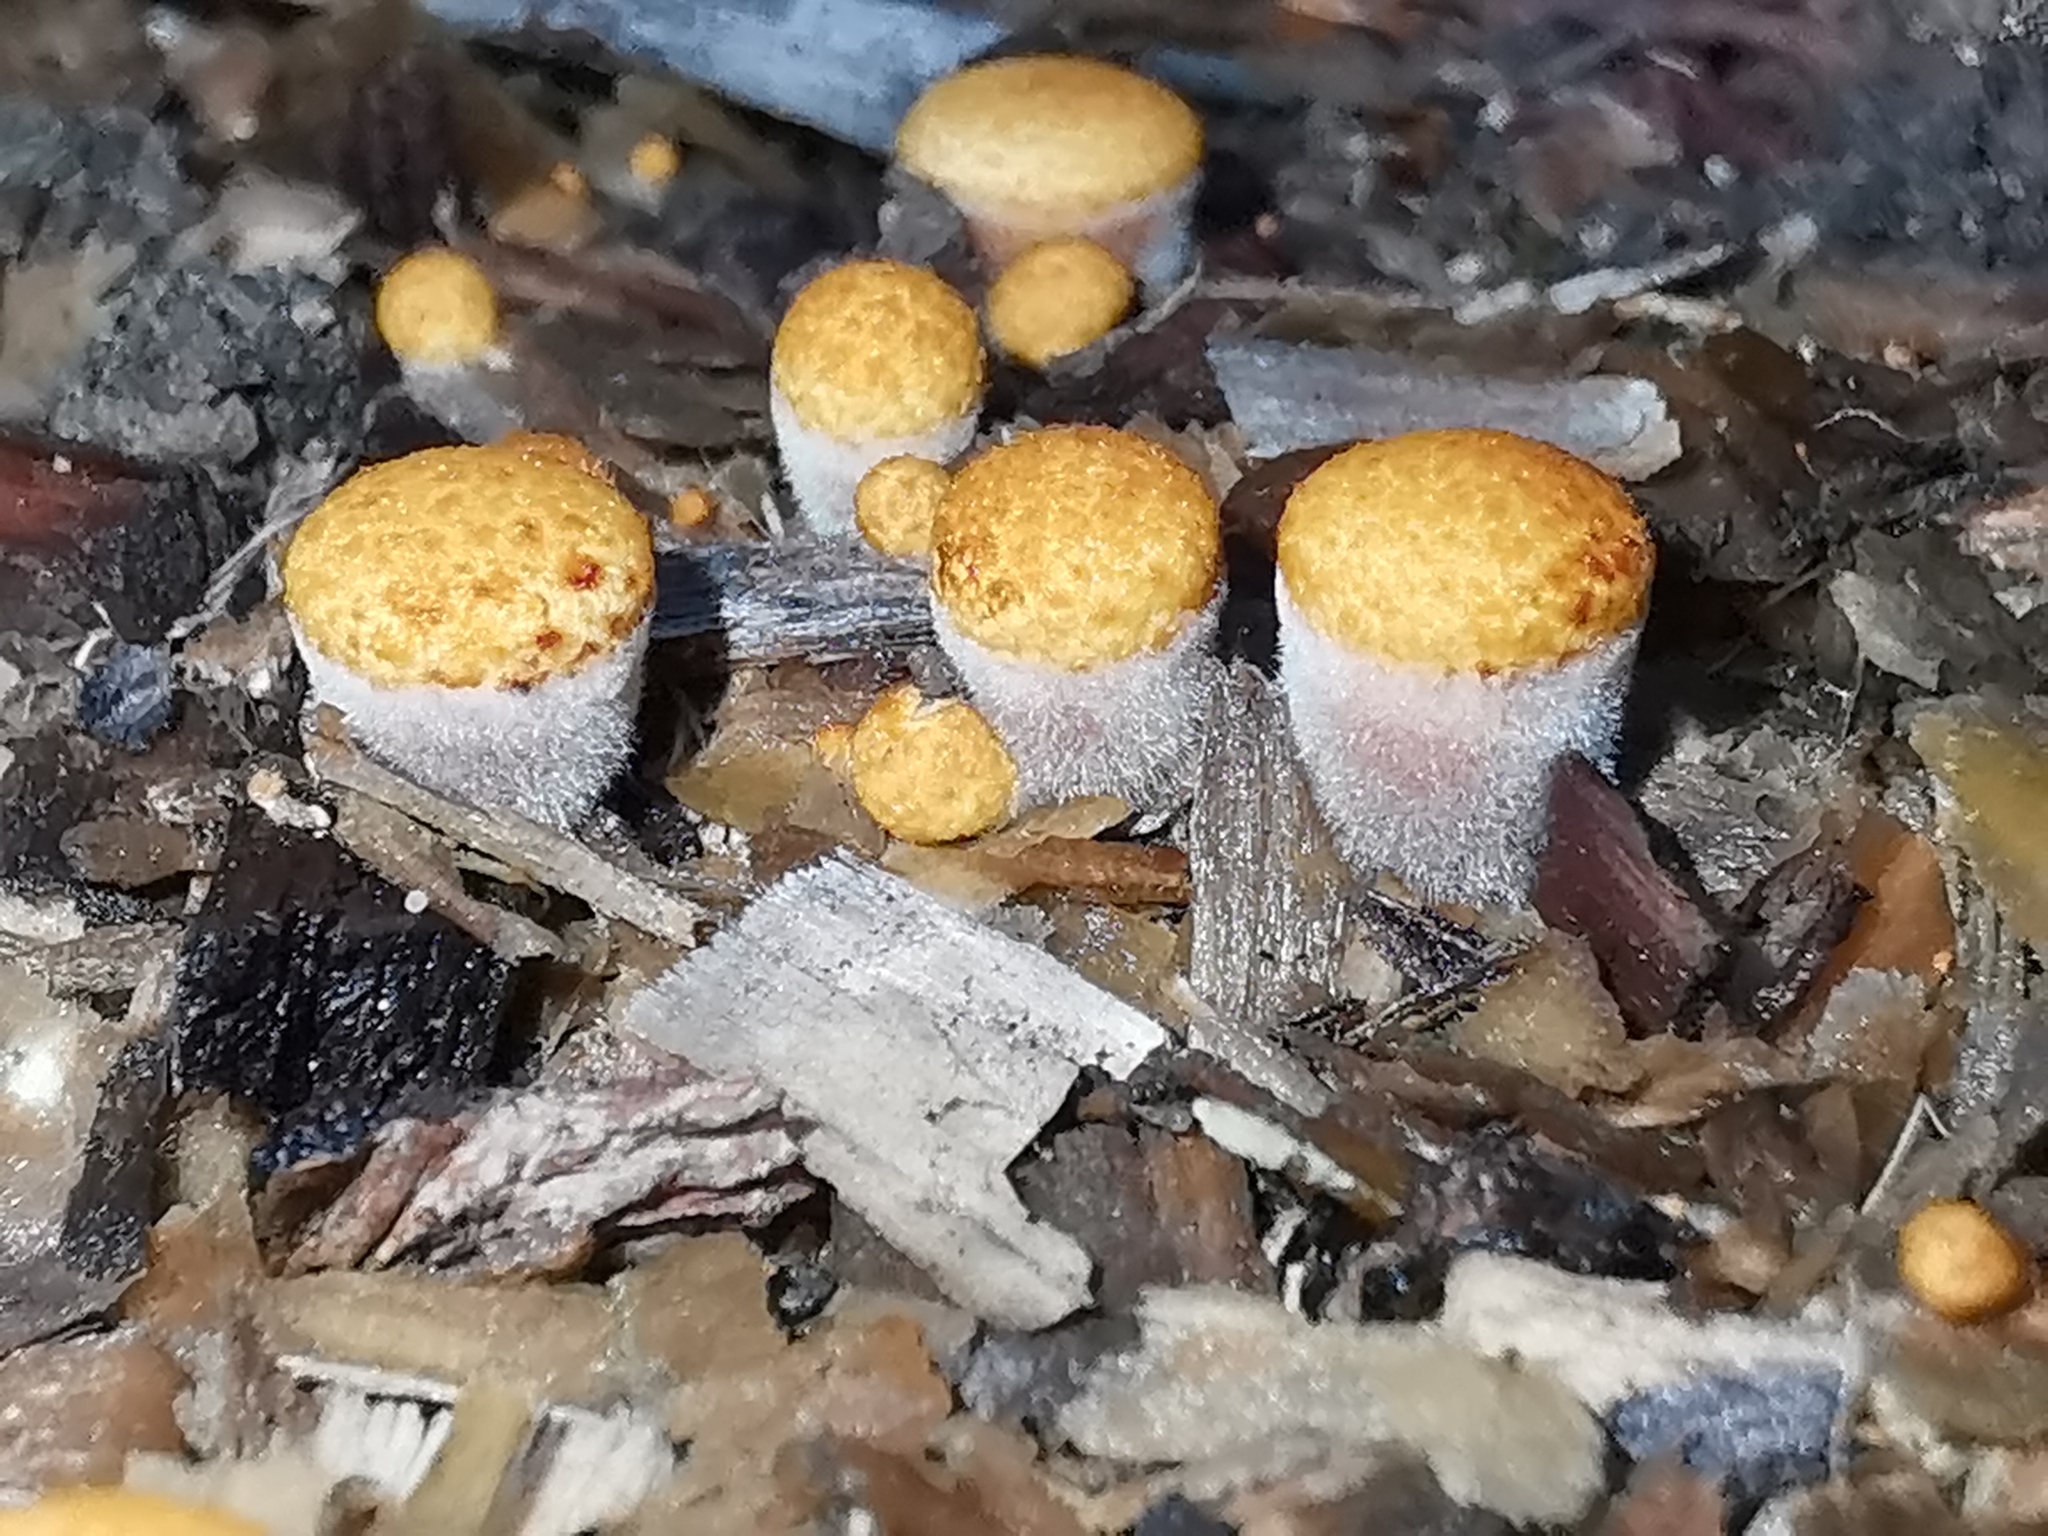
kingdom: Fungi
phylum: Basidiomycota
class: Agaricomycetes
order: Agaricales
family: Nidulariaceae
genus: Crucibulum
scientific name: Crucibulum laeve
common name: Common bird's nest
